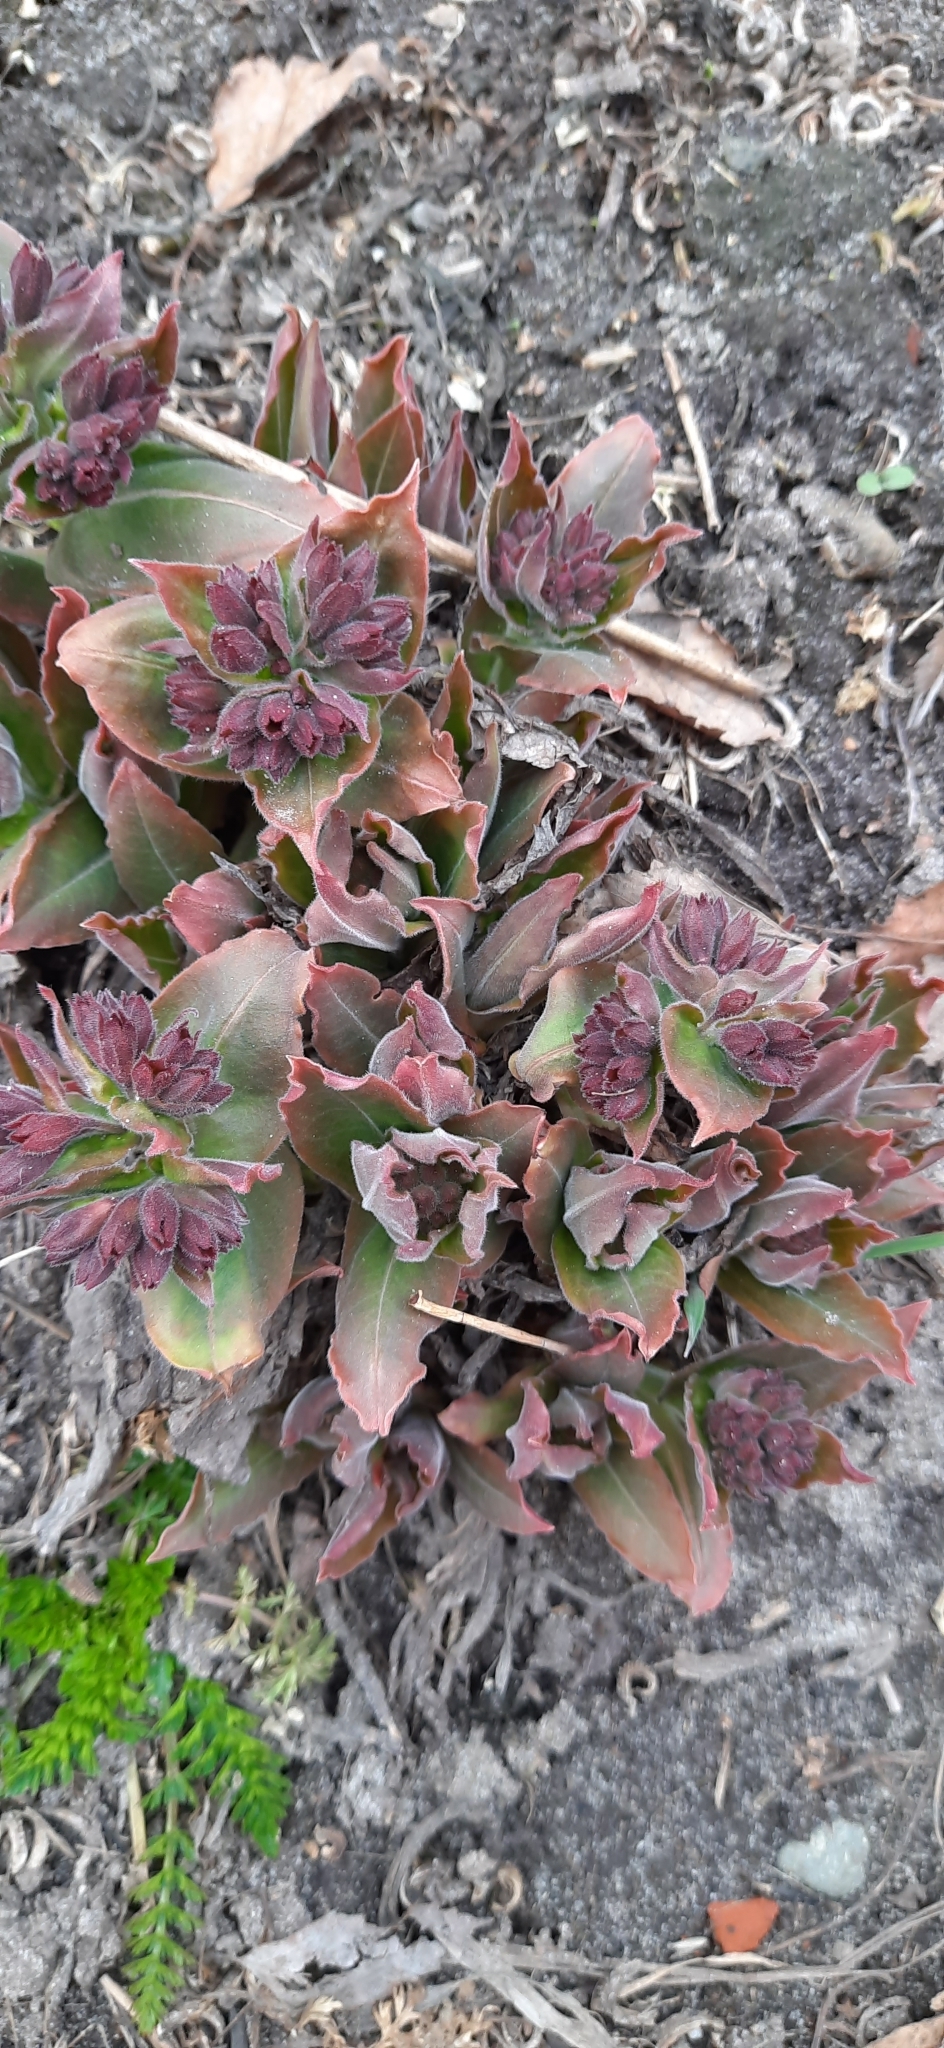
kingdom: Plantae
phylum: Tracheophyta
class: Magnoliopsida
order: Boraginales
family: Boraginaceae
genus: Pulmonaria
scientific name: Pulmonaria mollis
